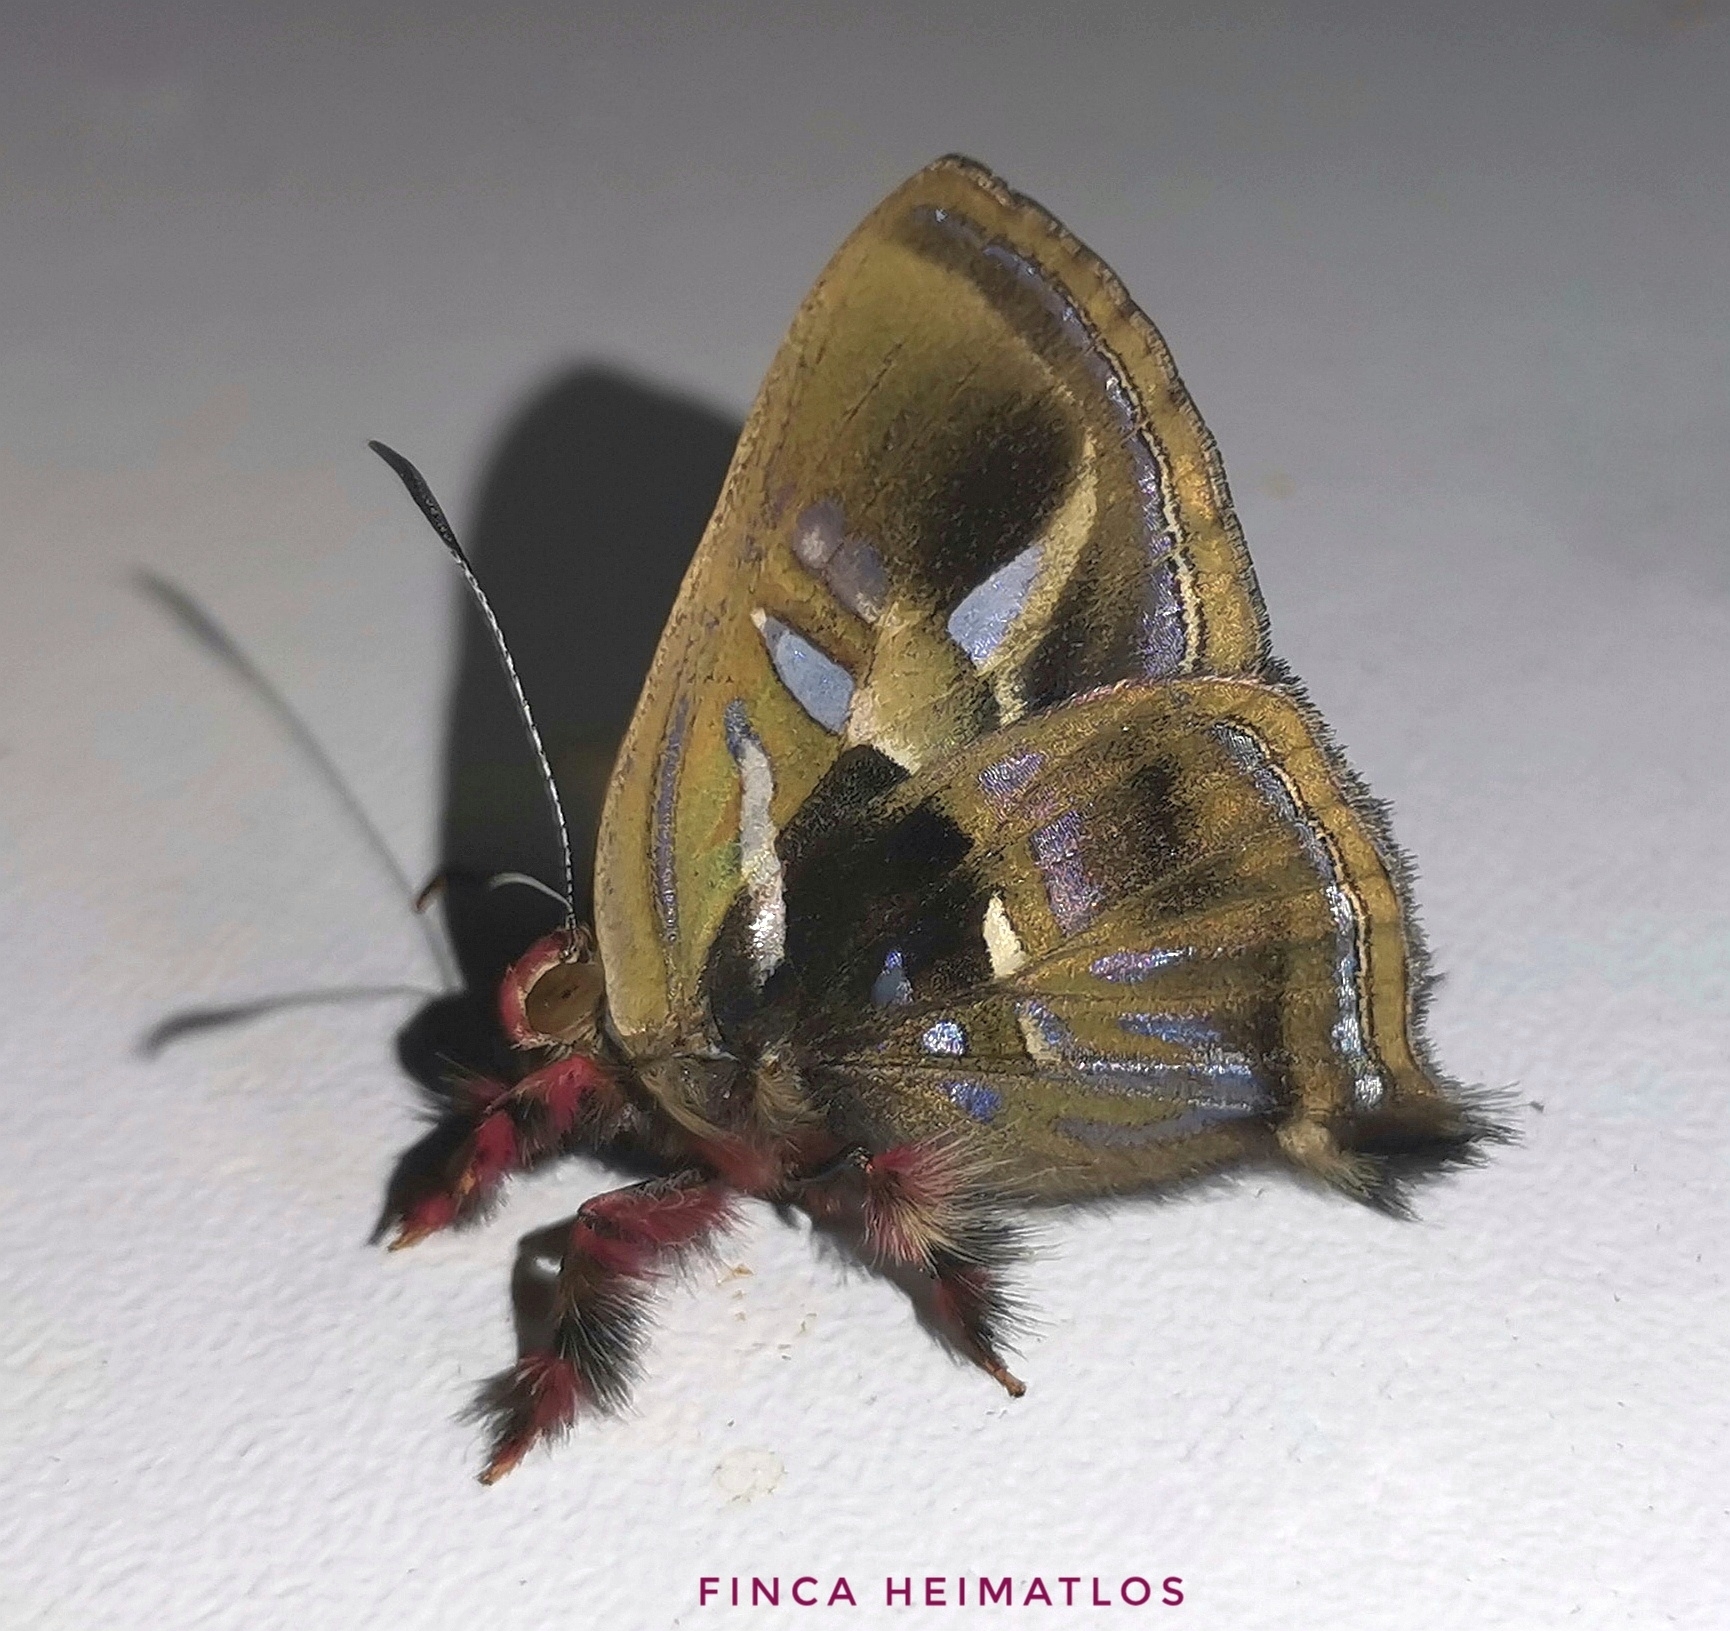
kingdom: Animalia
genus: Anteros
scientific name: Anteros renaldus
